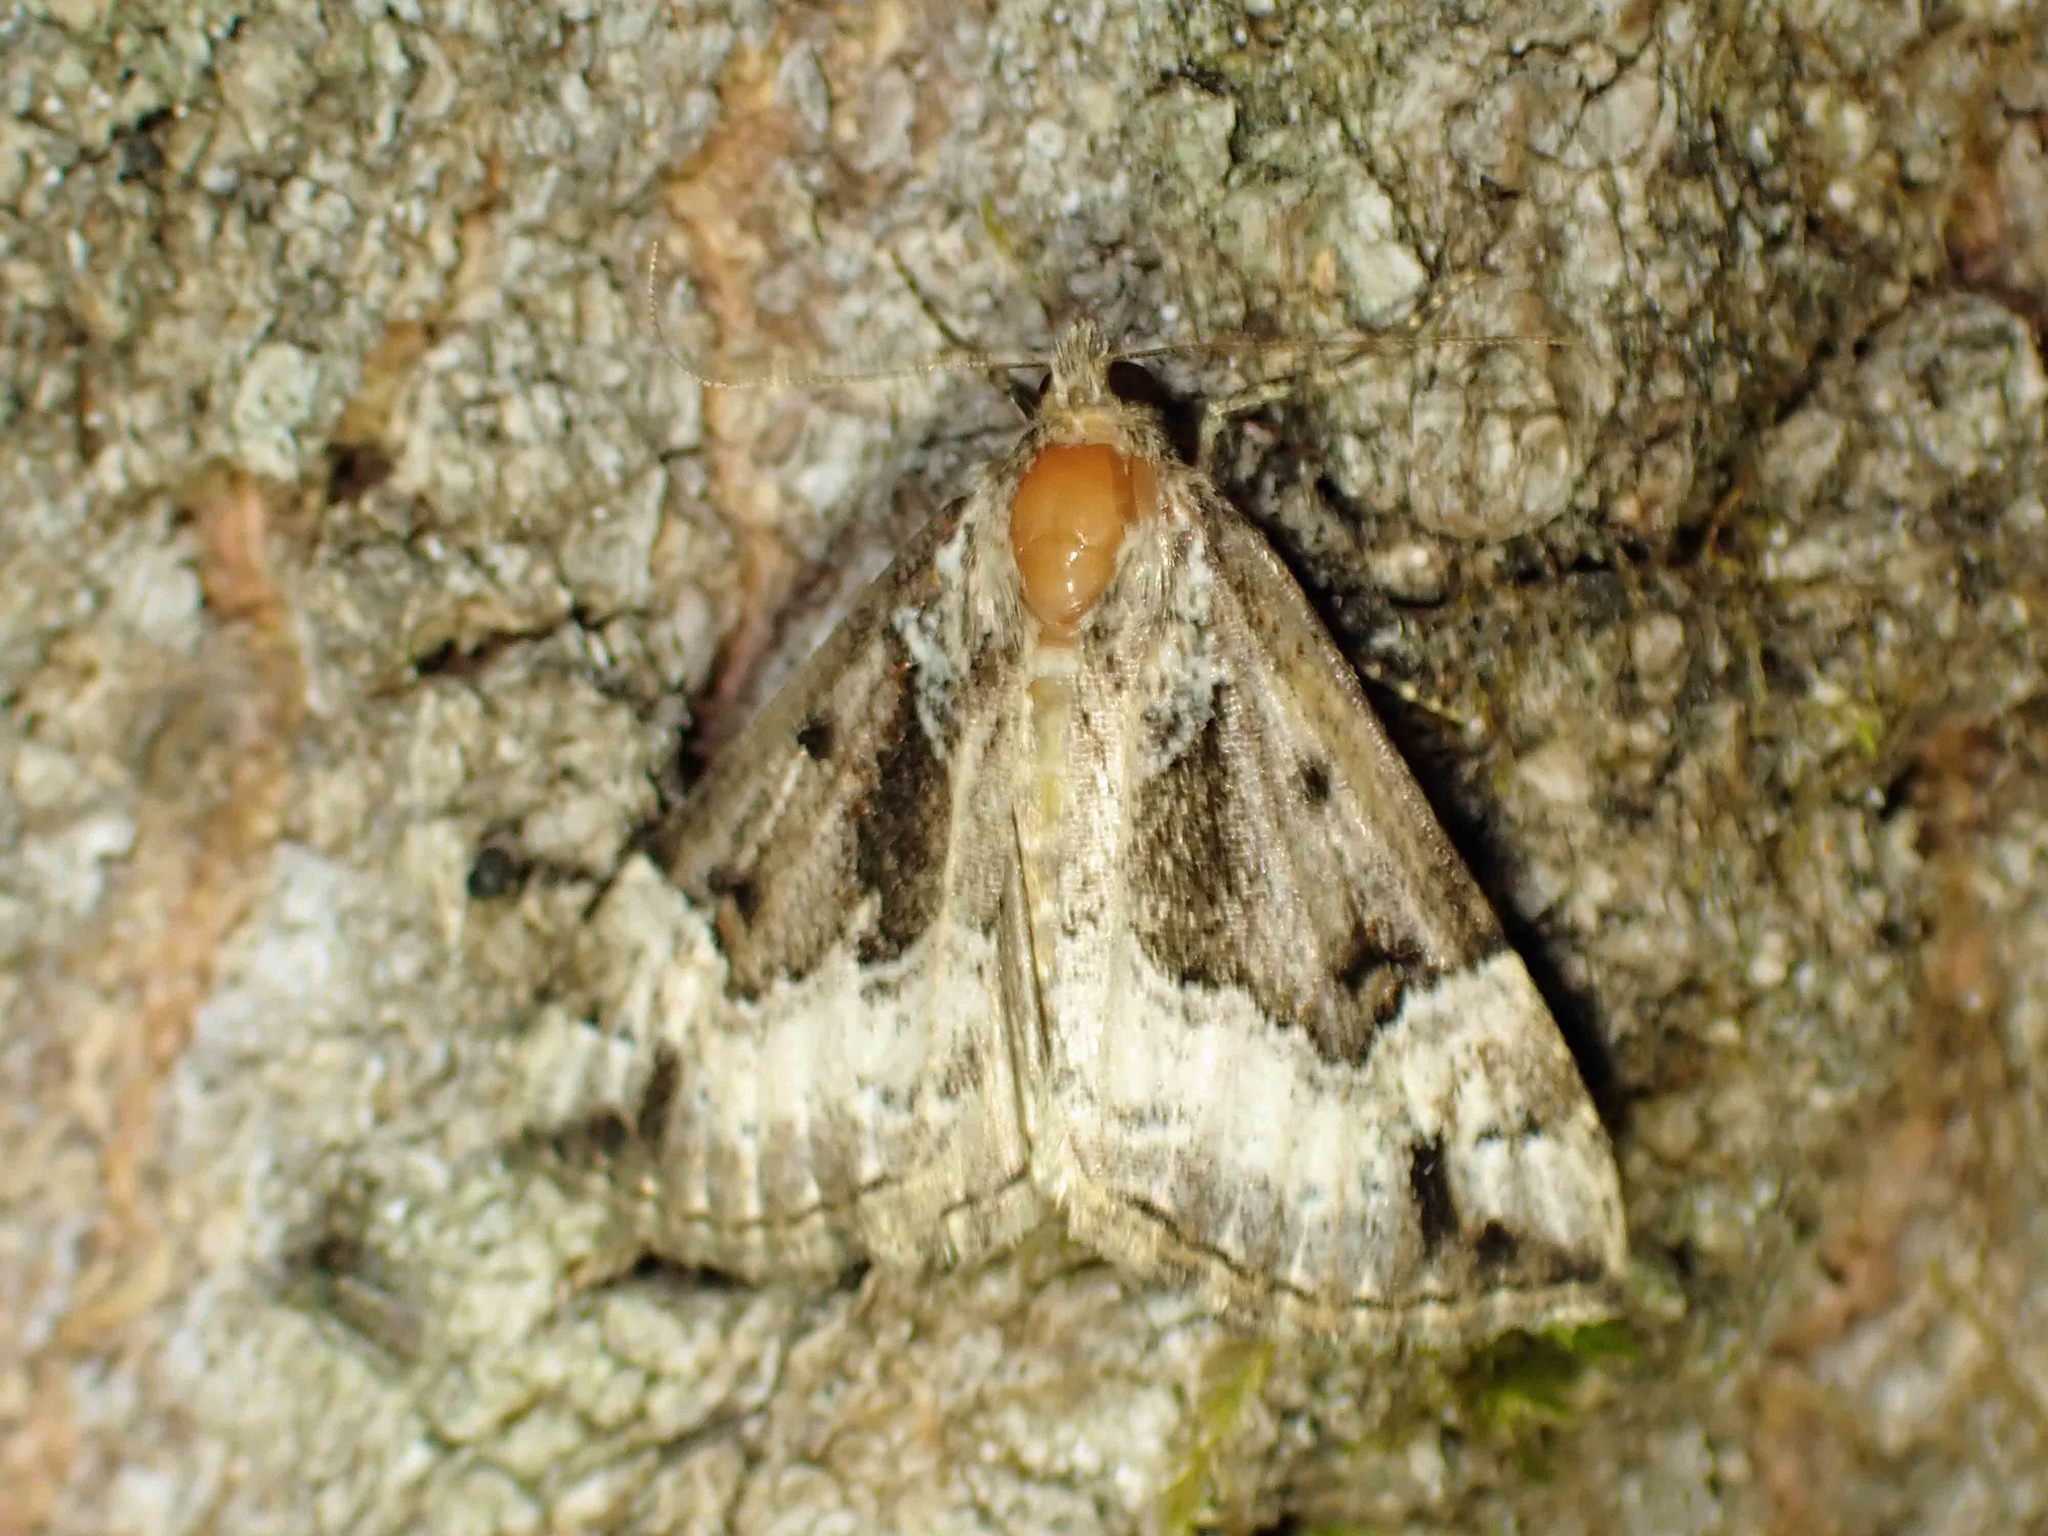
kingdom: Animalia
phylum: Arthropoda
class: Insecta
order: Lepidoptera
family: Erebidae
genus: Hypena
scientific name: Hypena palparia
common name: Mottled bomolocha moth
